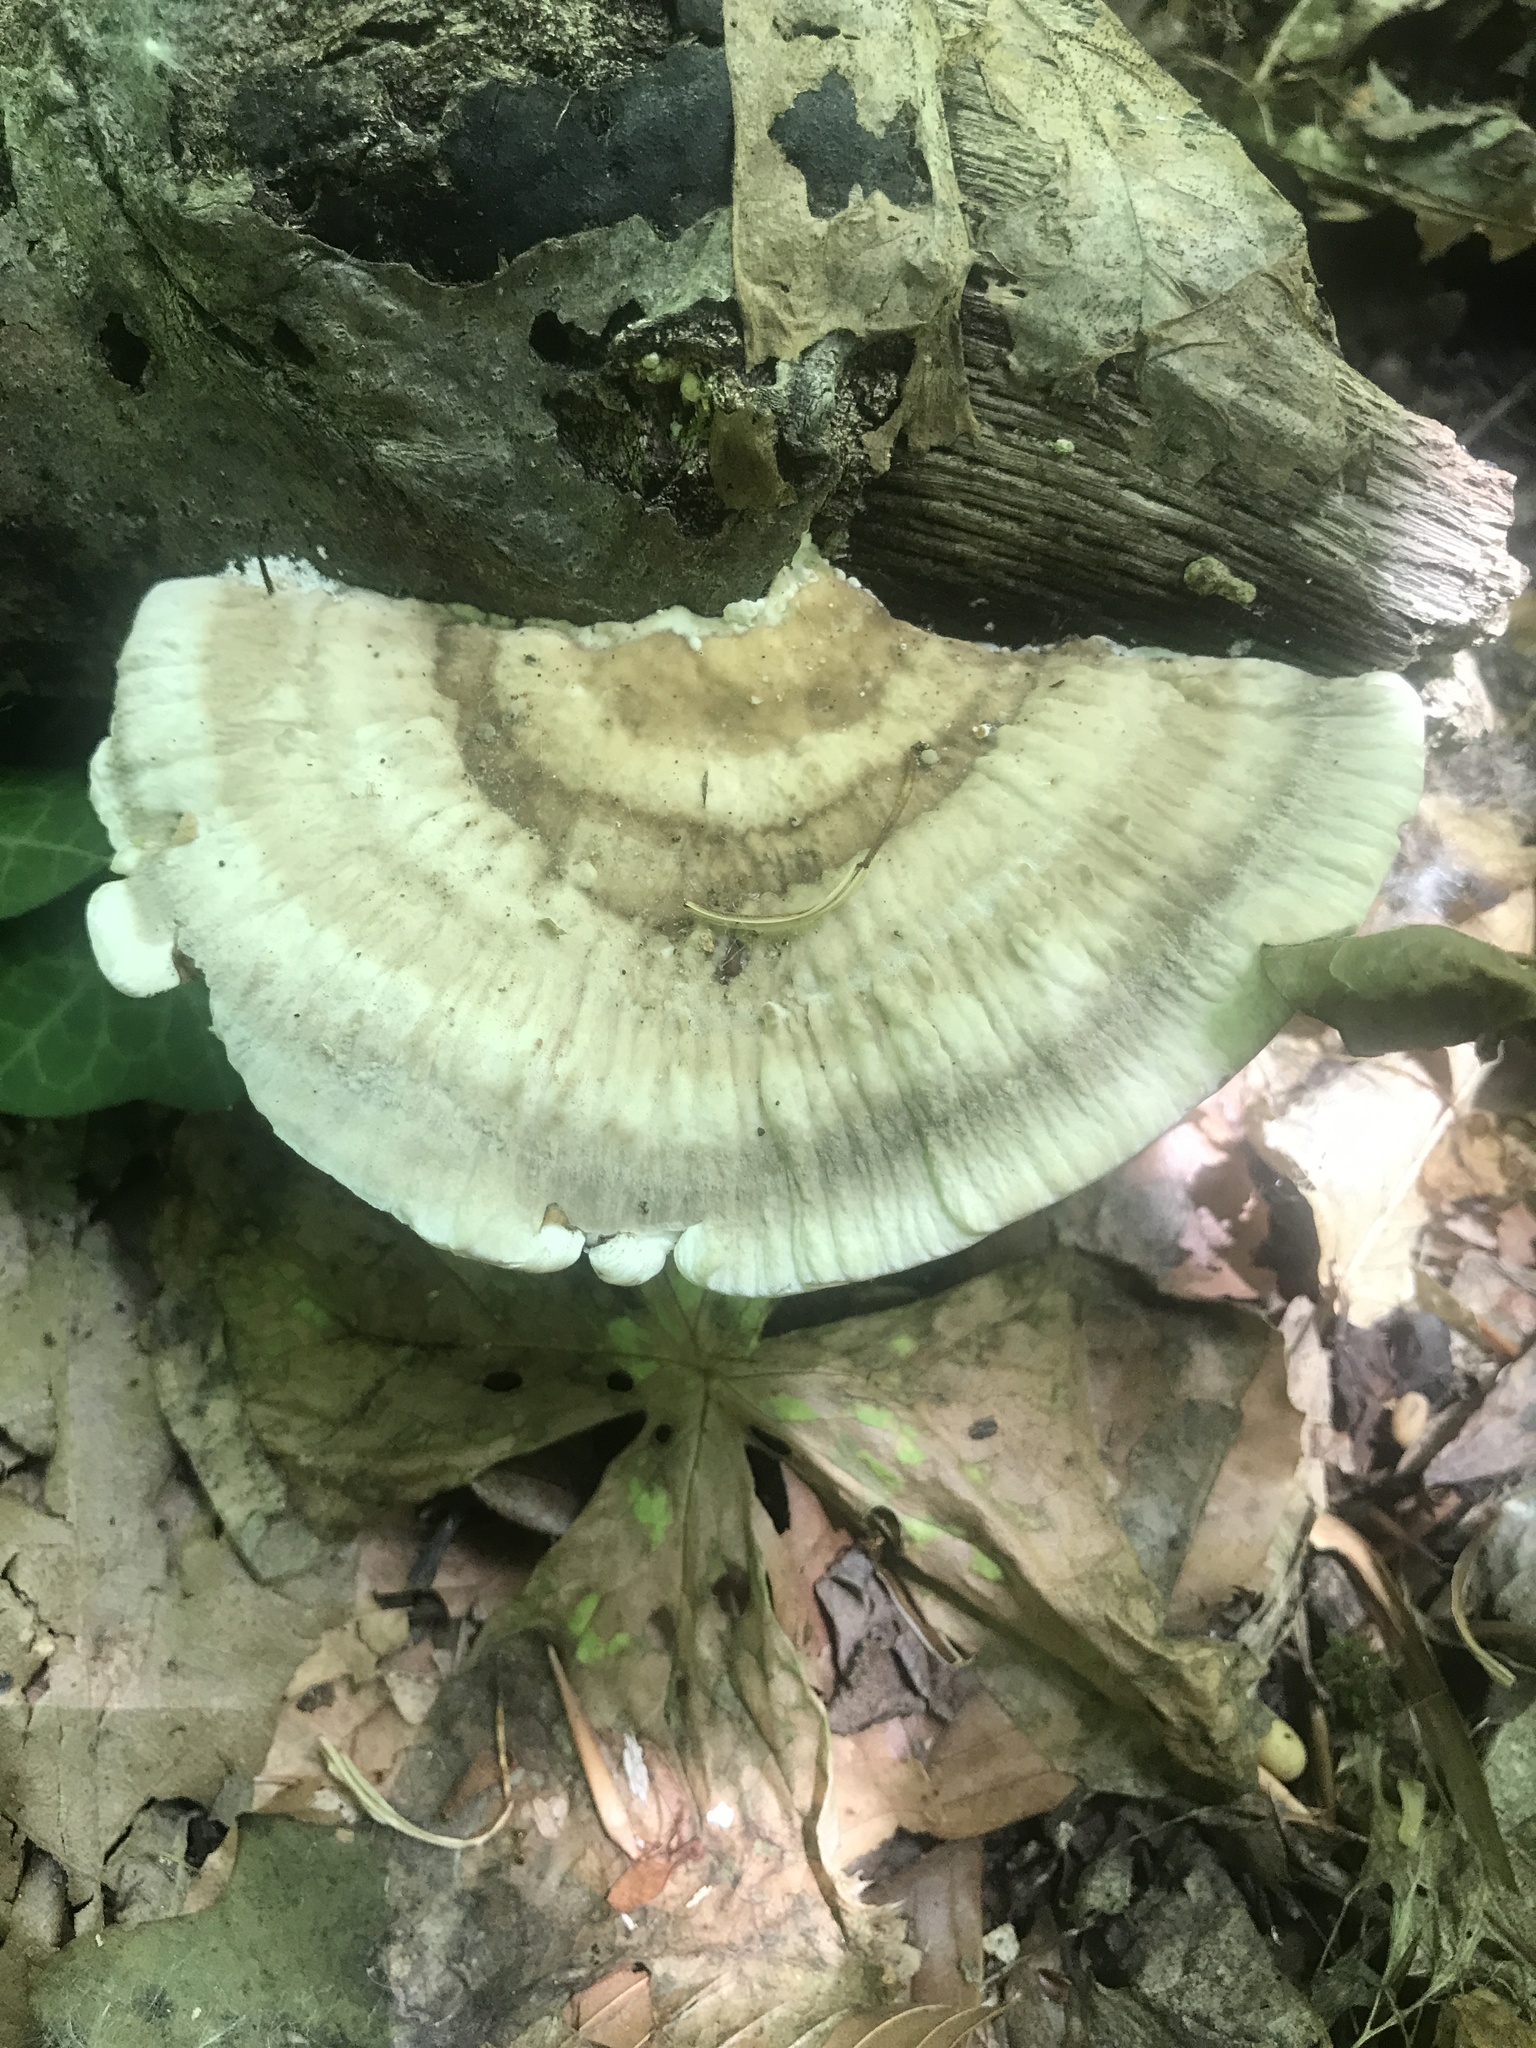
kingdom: Fungi
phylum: Basidiomycota
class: Agaricomycetes
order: Polyporales
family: Polyporaceae
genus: Trametes
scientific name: Trametes lactinea
